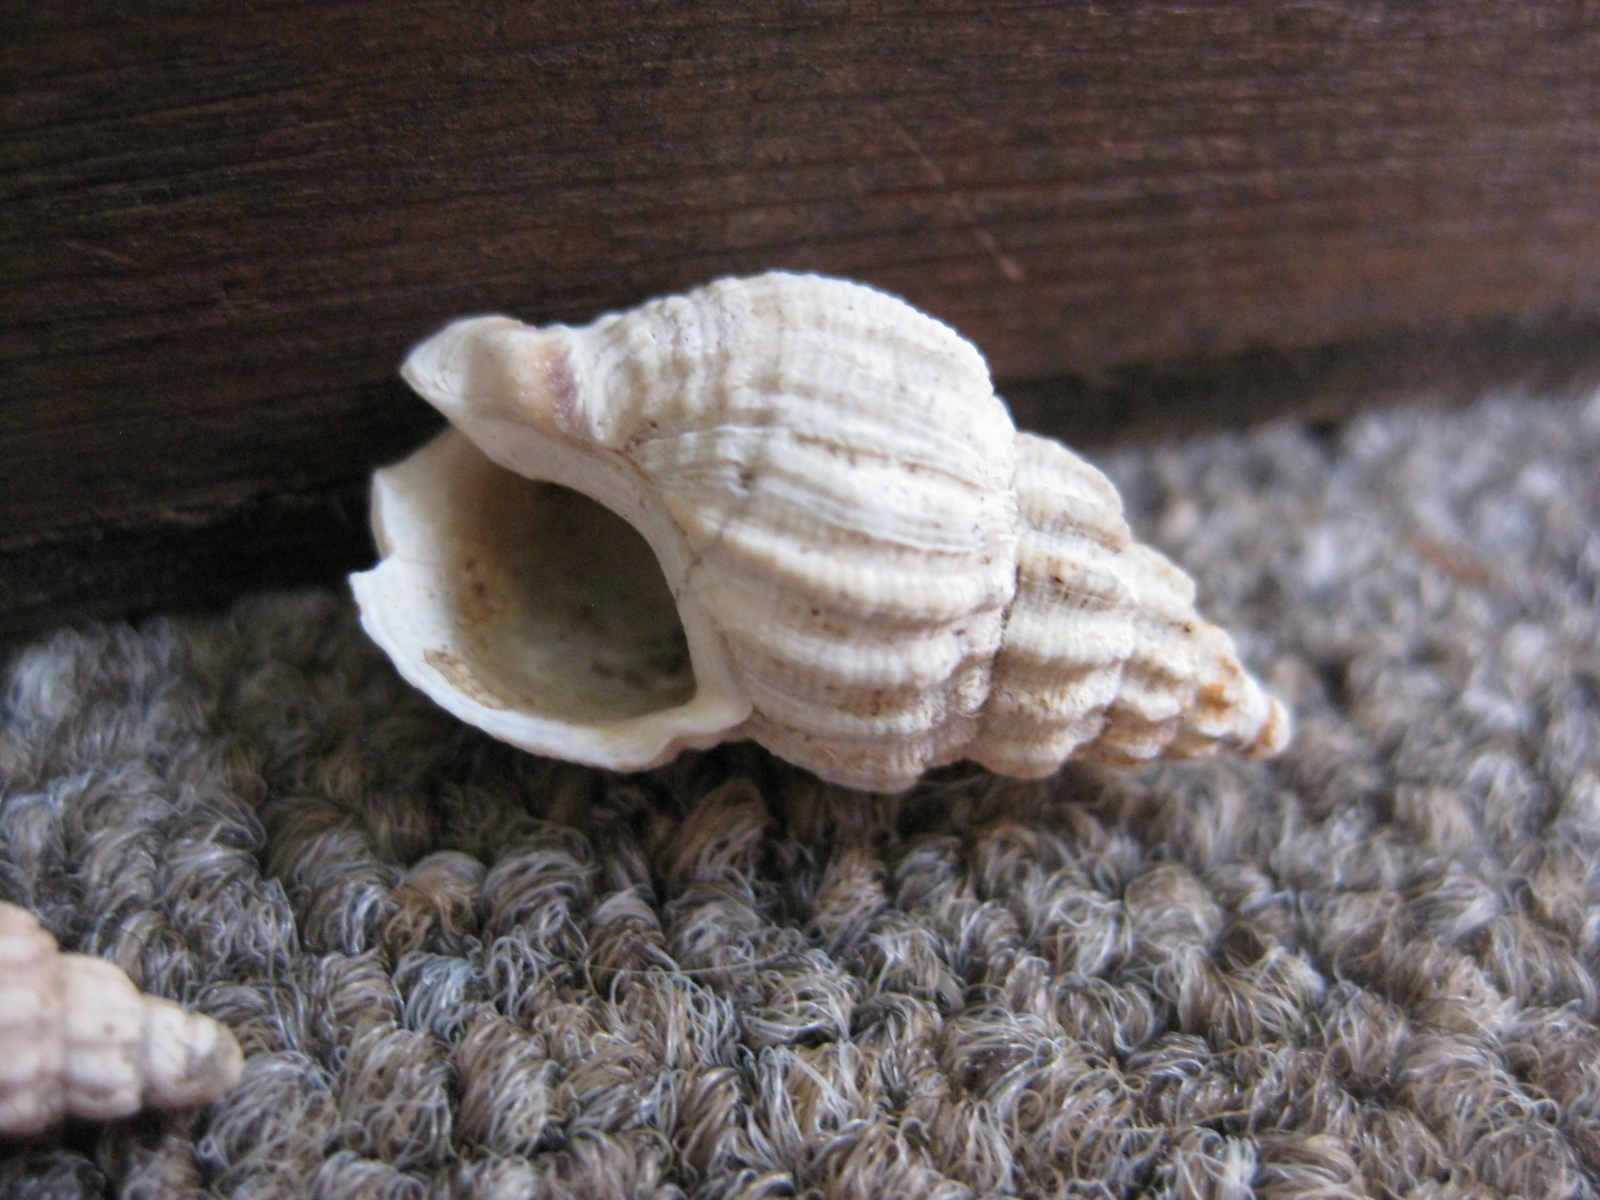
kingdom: Animalia
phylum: Mollusca
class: Gastropoda
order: Neogastropoda
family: Cominellidae
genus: Cominella
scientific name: Cominella elegantula
